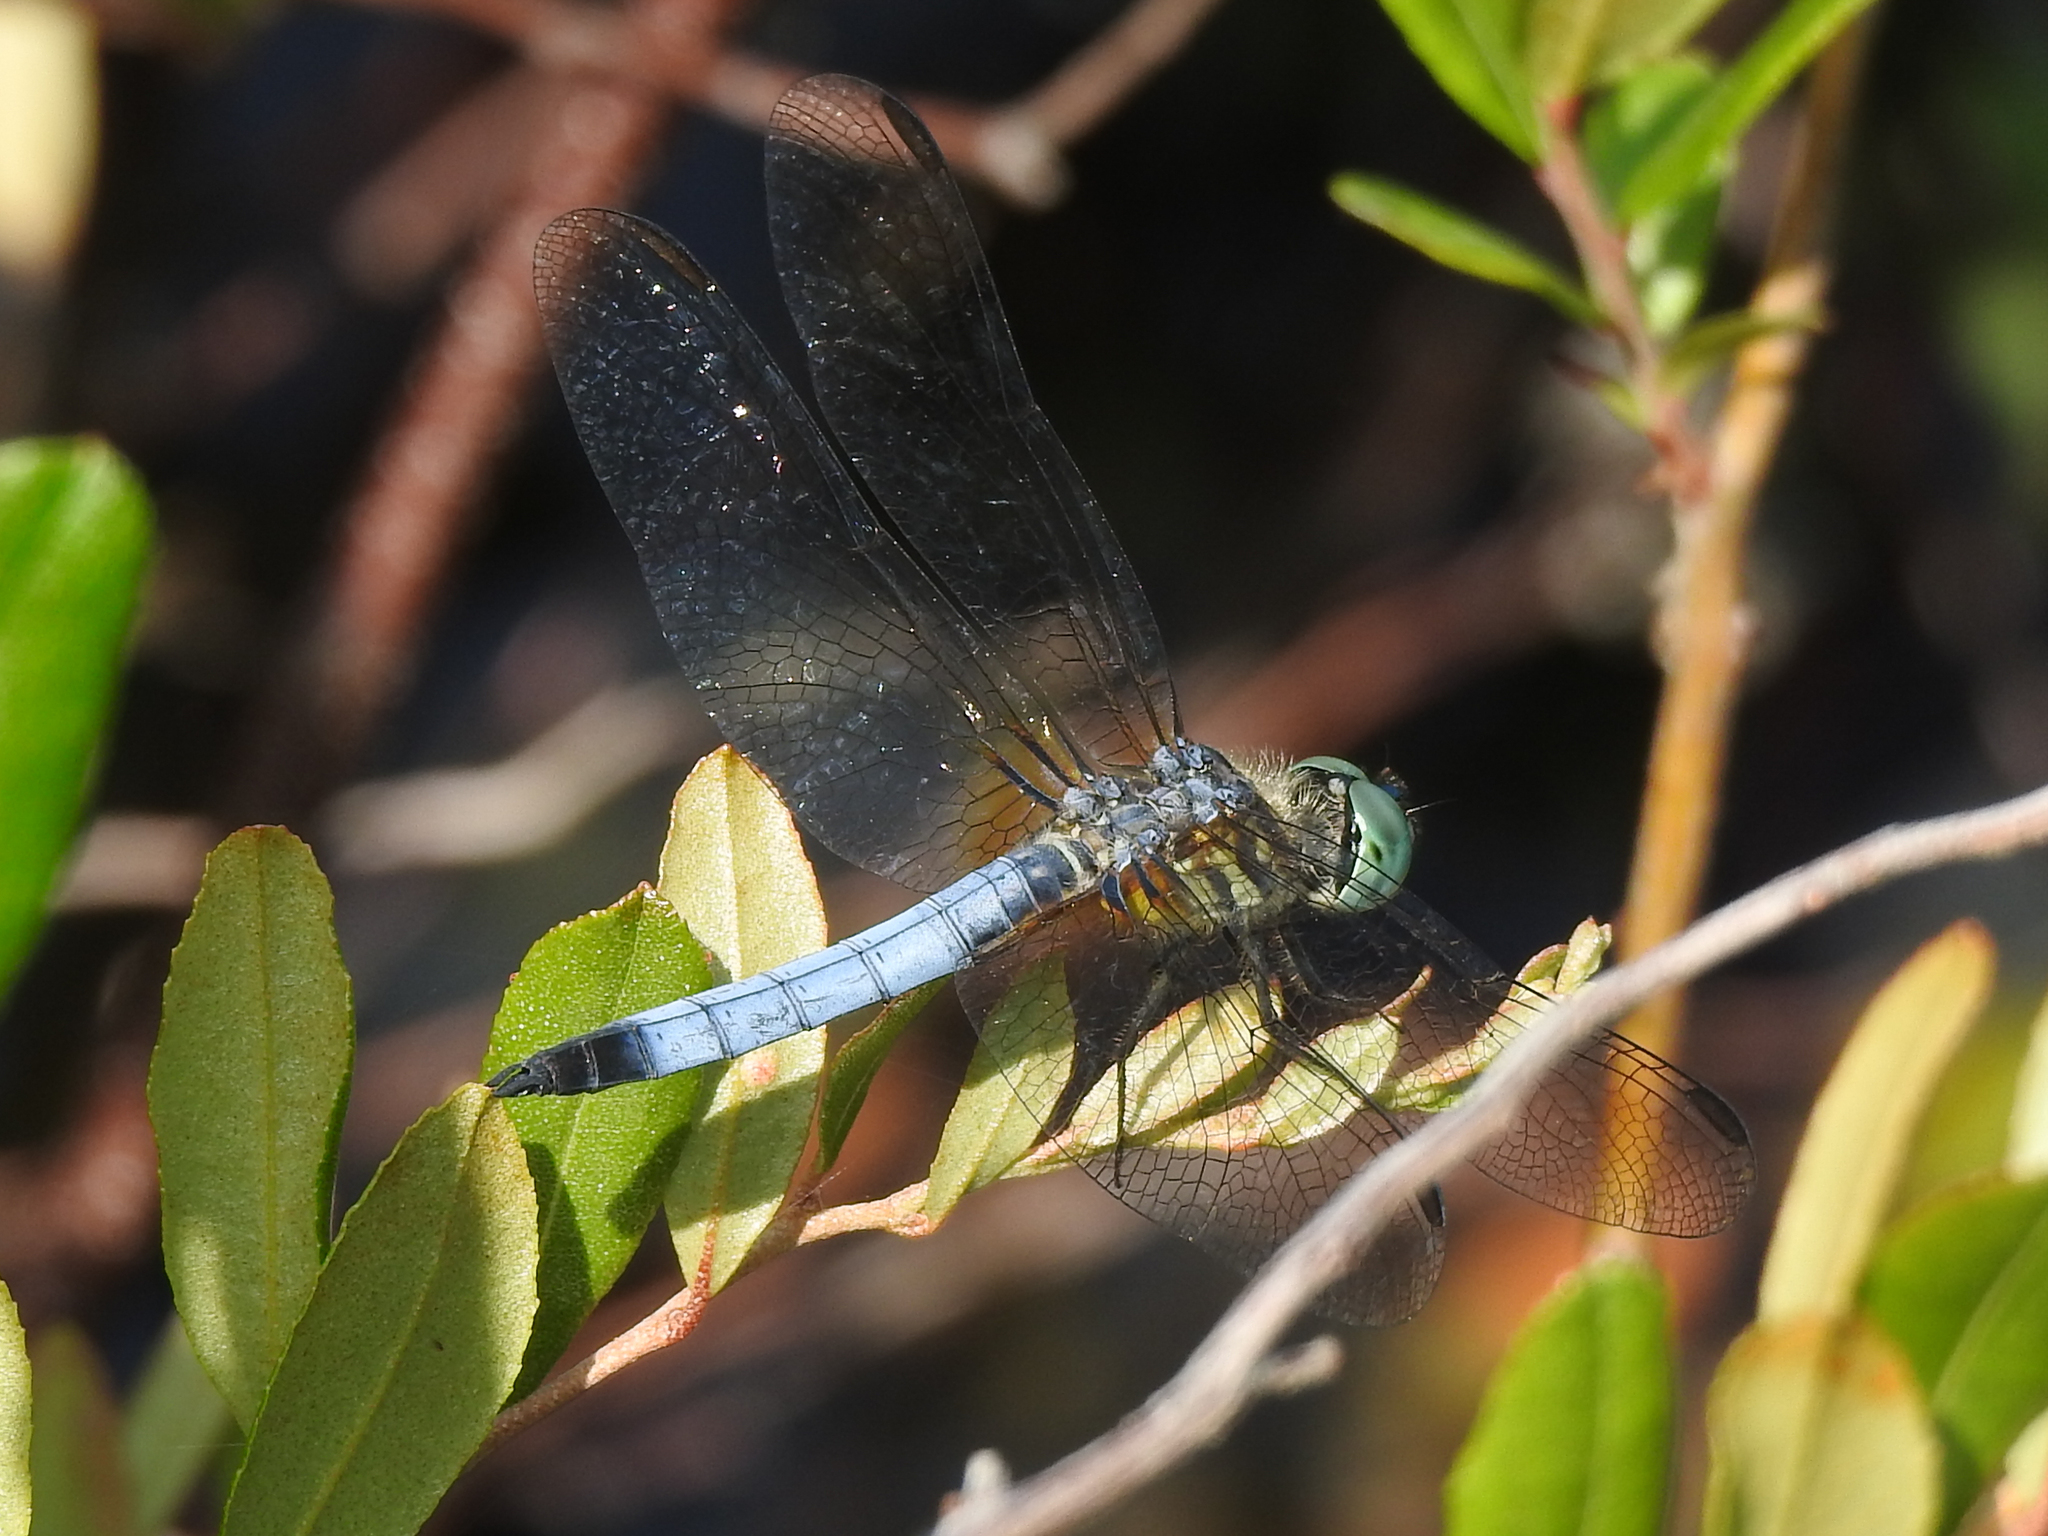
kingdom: Animalia
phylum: Arthropoda
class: Insecta
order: Odonata
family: Libellulidae
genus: Pachydiplax
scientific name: Pachydiplax longipennis
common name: Blue dasher
